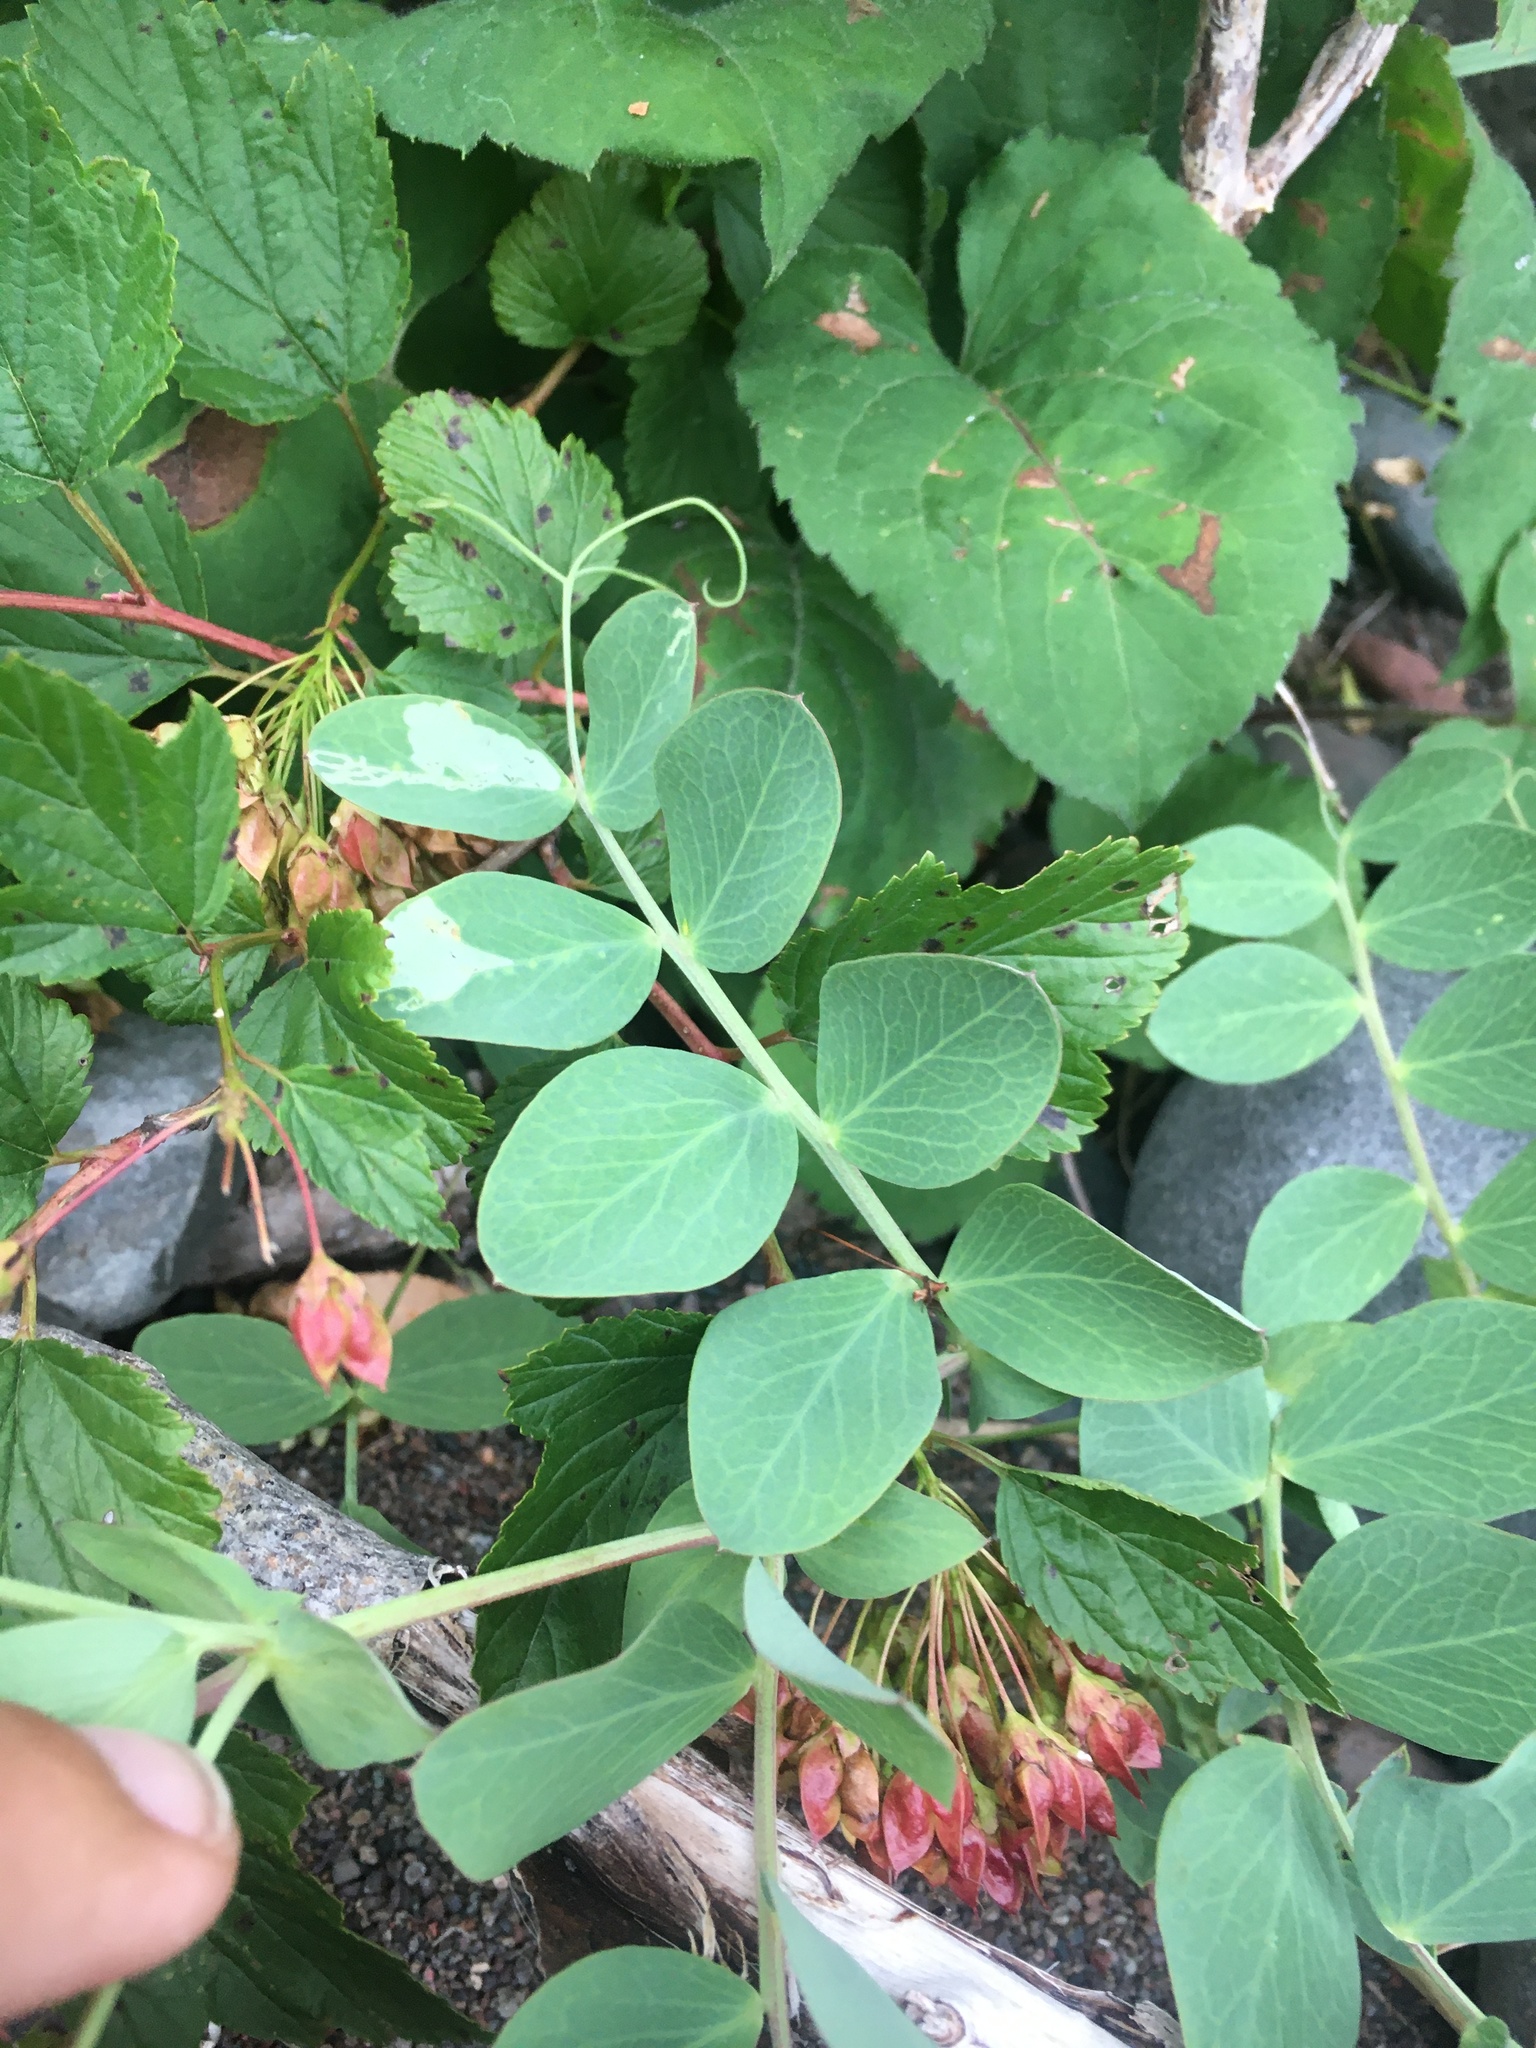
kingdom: Plantae
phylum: Tracheophyta
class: Magnoliopsida
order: Fabales
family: Fabaceae
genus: Lathyrus
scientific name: Lathyrus japonicus
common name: Sea pea
